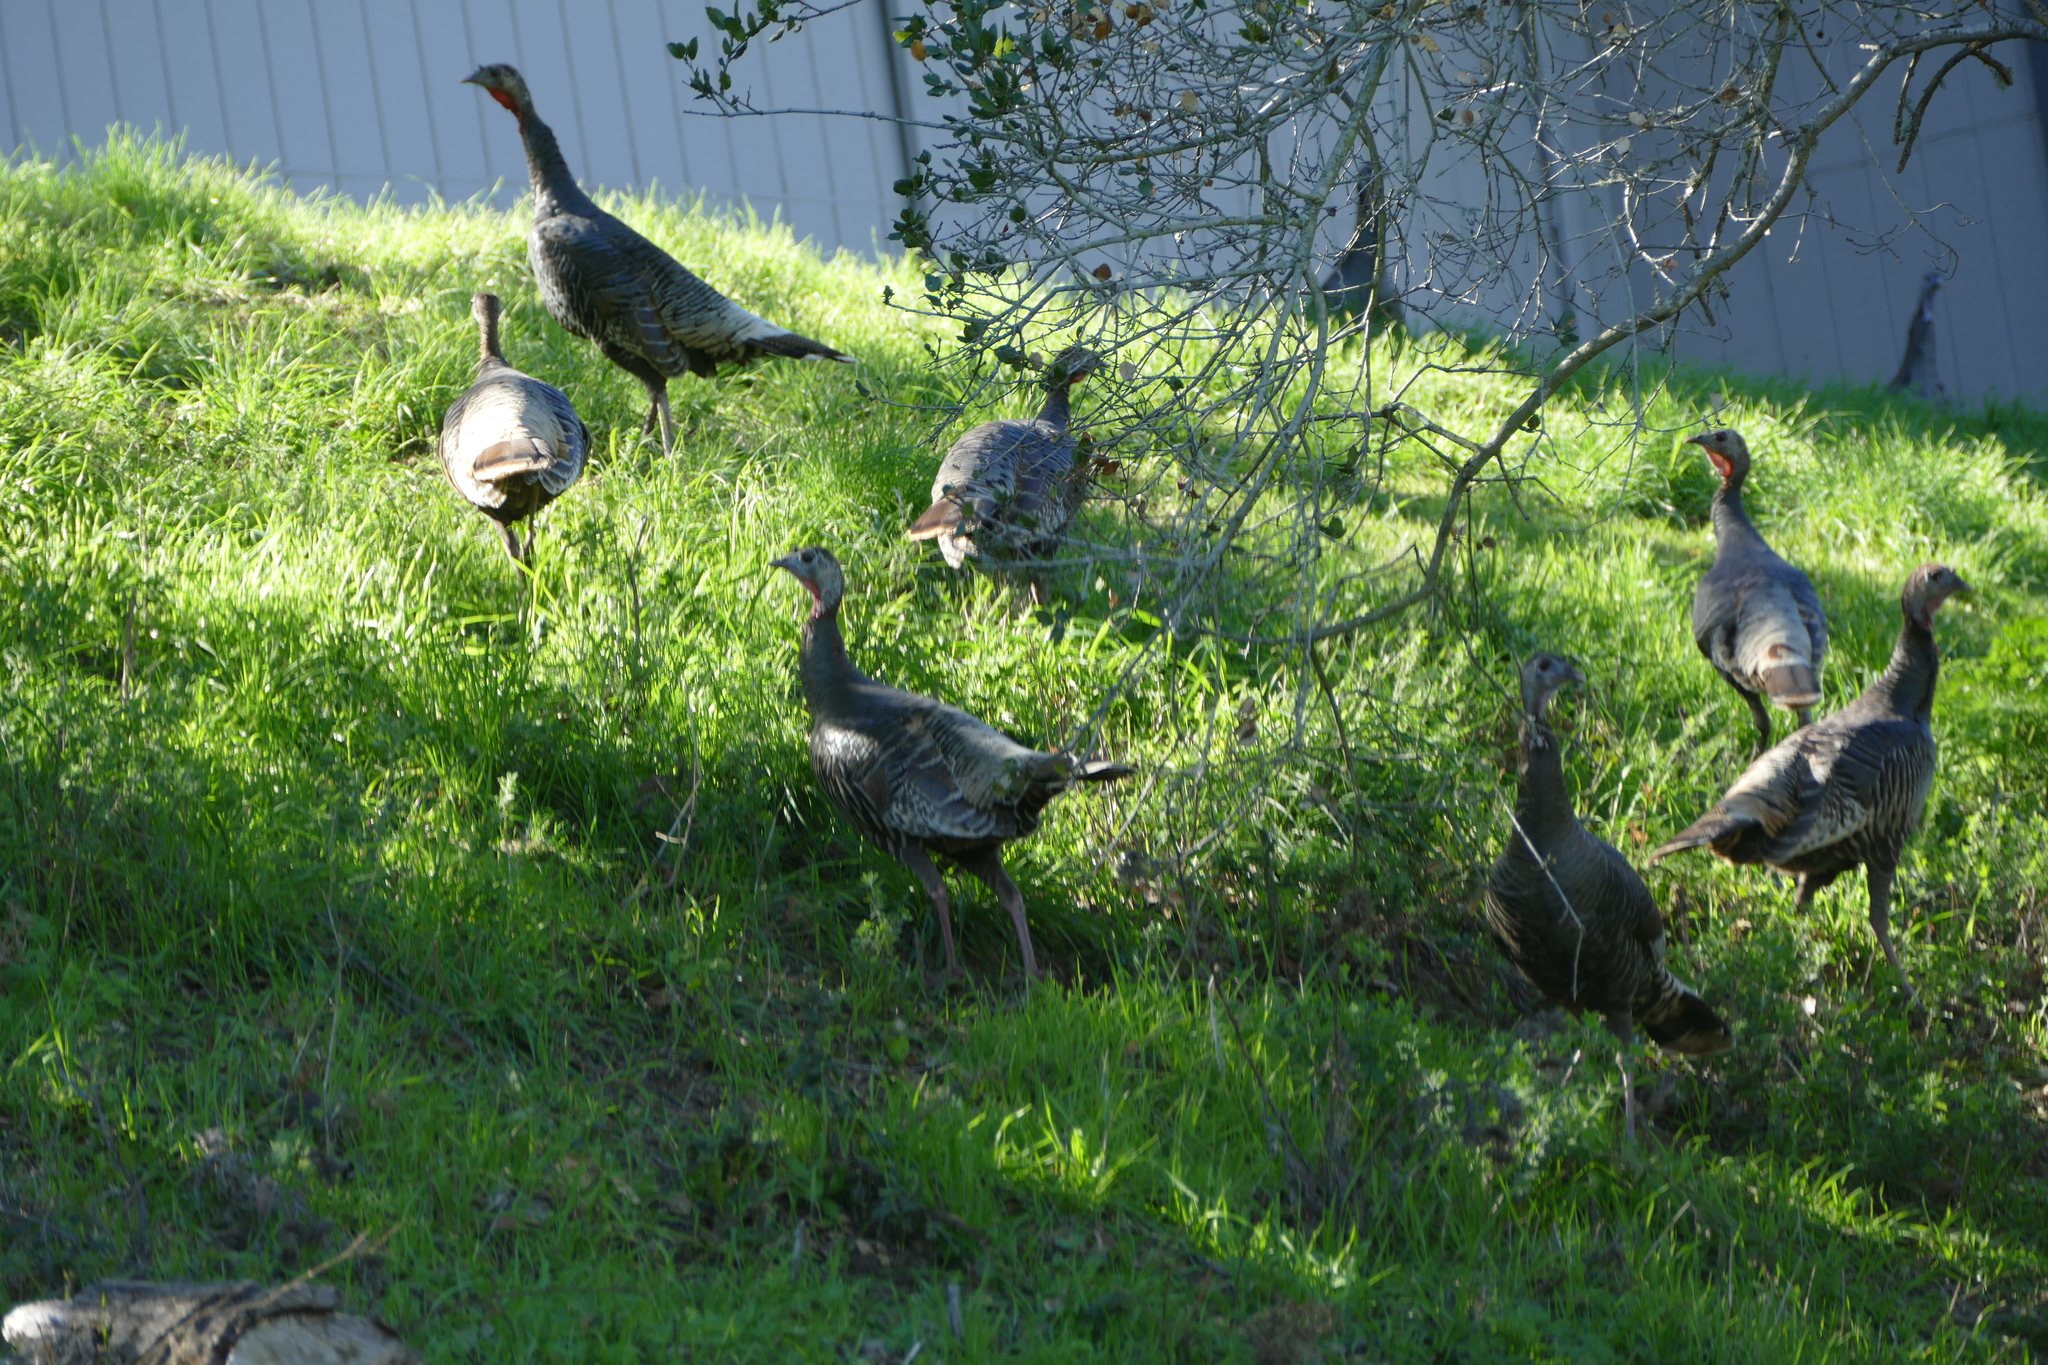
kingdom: Animalia
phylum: Chordata
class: Aves
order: Galliformes
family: Phasianidae
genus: Meleagris
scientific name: Meleagris gallopavo
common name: Wild turkey
